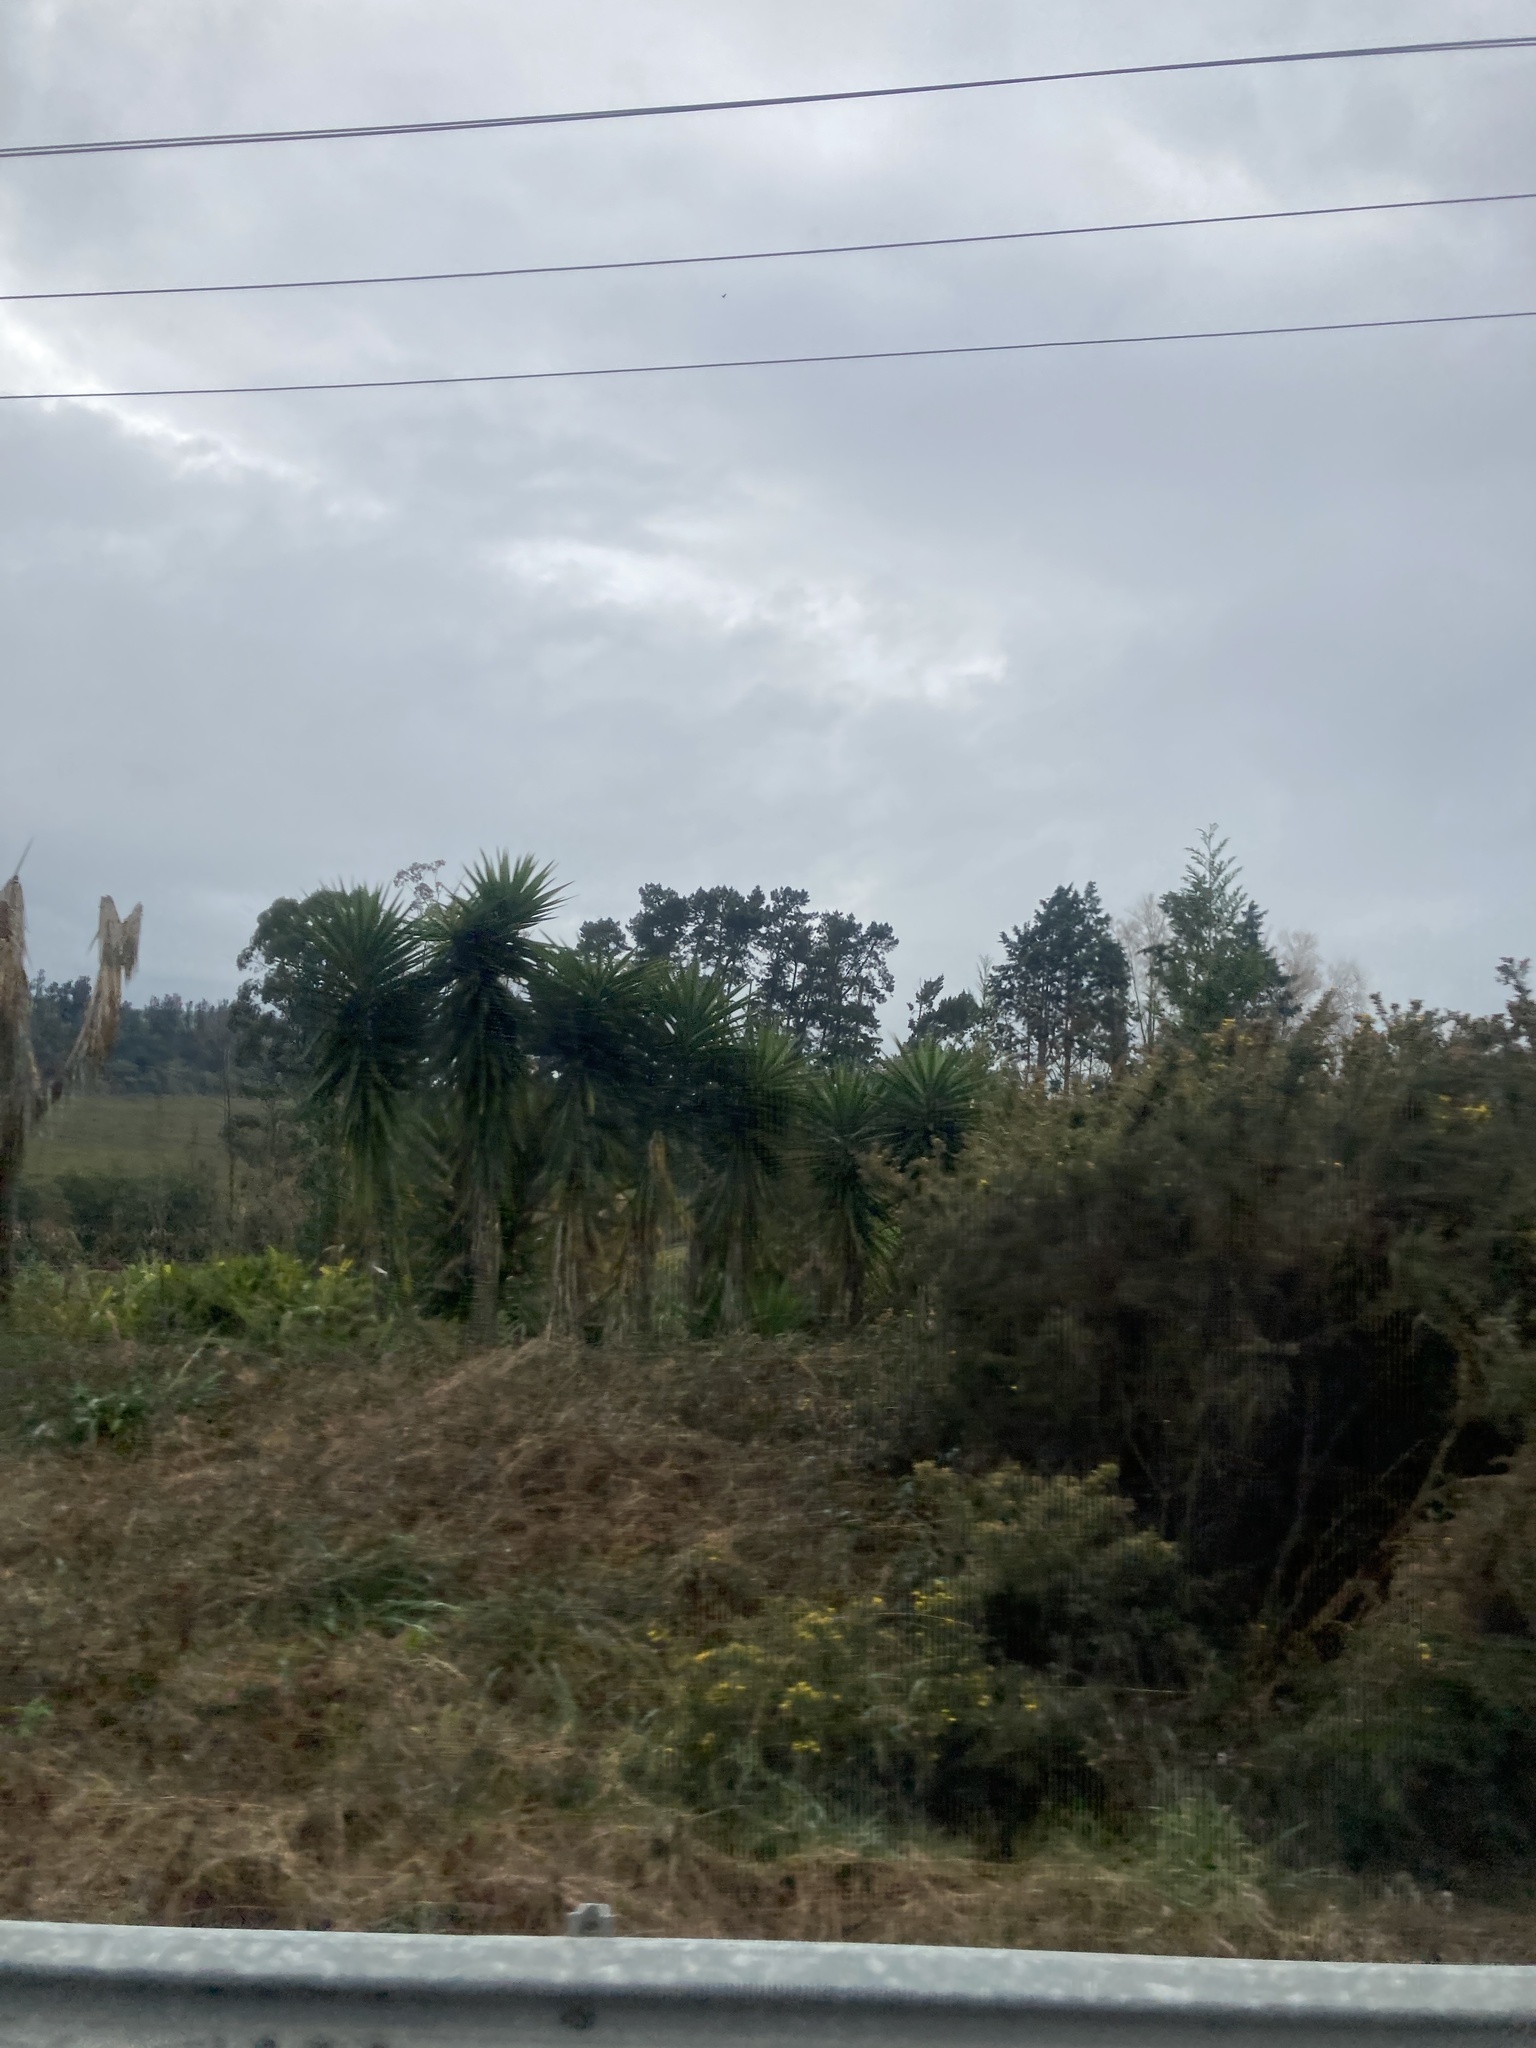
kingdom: Plantae
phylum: Tracheophyta
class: Liliopsida
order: Asparagales
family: Asparagaceae
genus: Cordyline
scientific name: Cordyline australis
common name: Cabbage-palm
